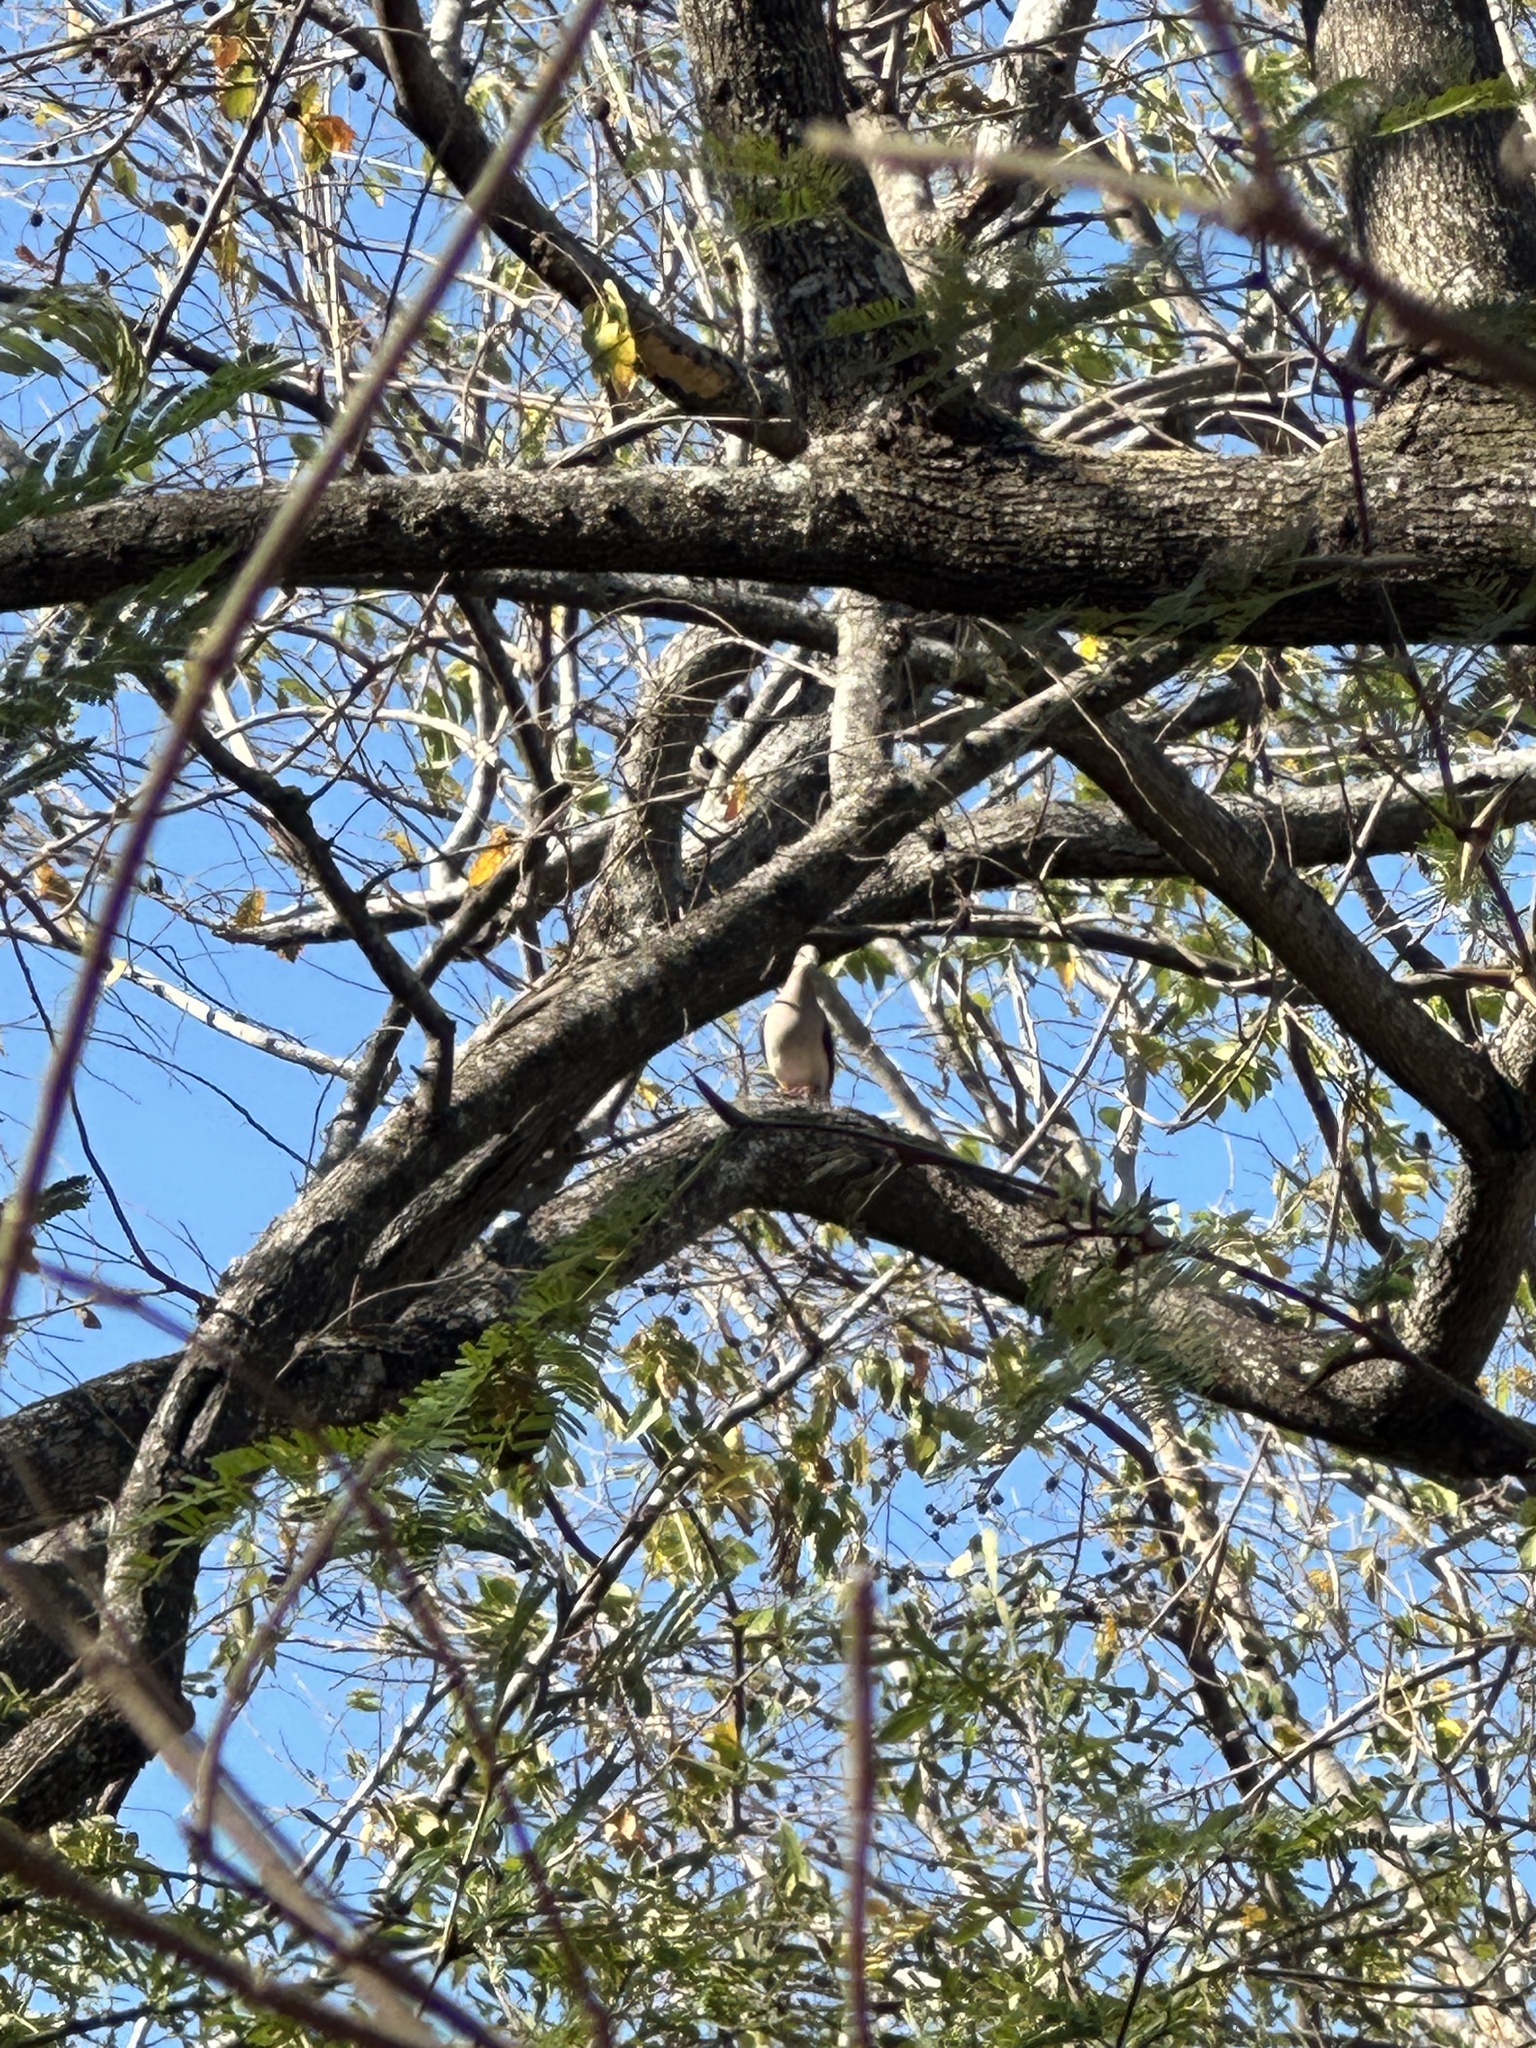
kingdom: Animalia
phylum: Chordata
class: Aves
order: Columbiformes
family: Columbidae
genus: Leptotila
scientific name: Leptotila verreauxi
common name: White-tipped dove
